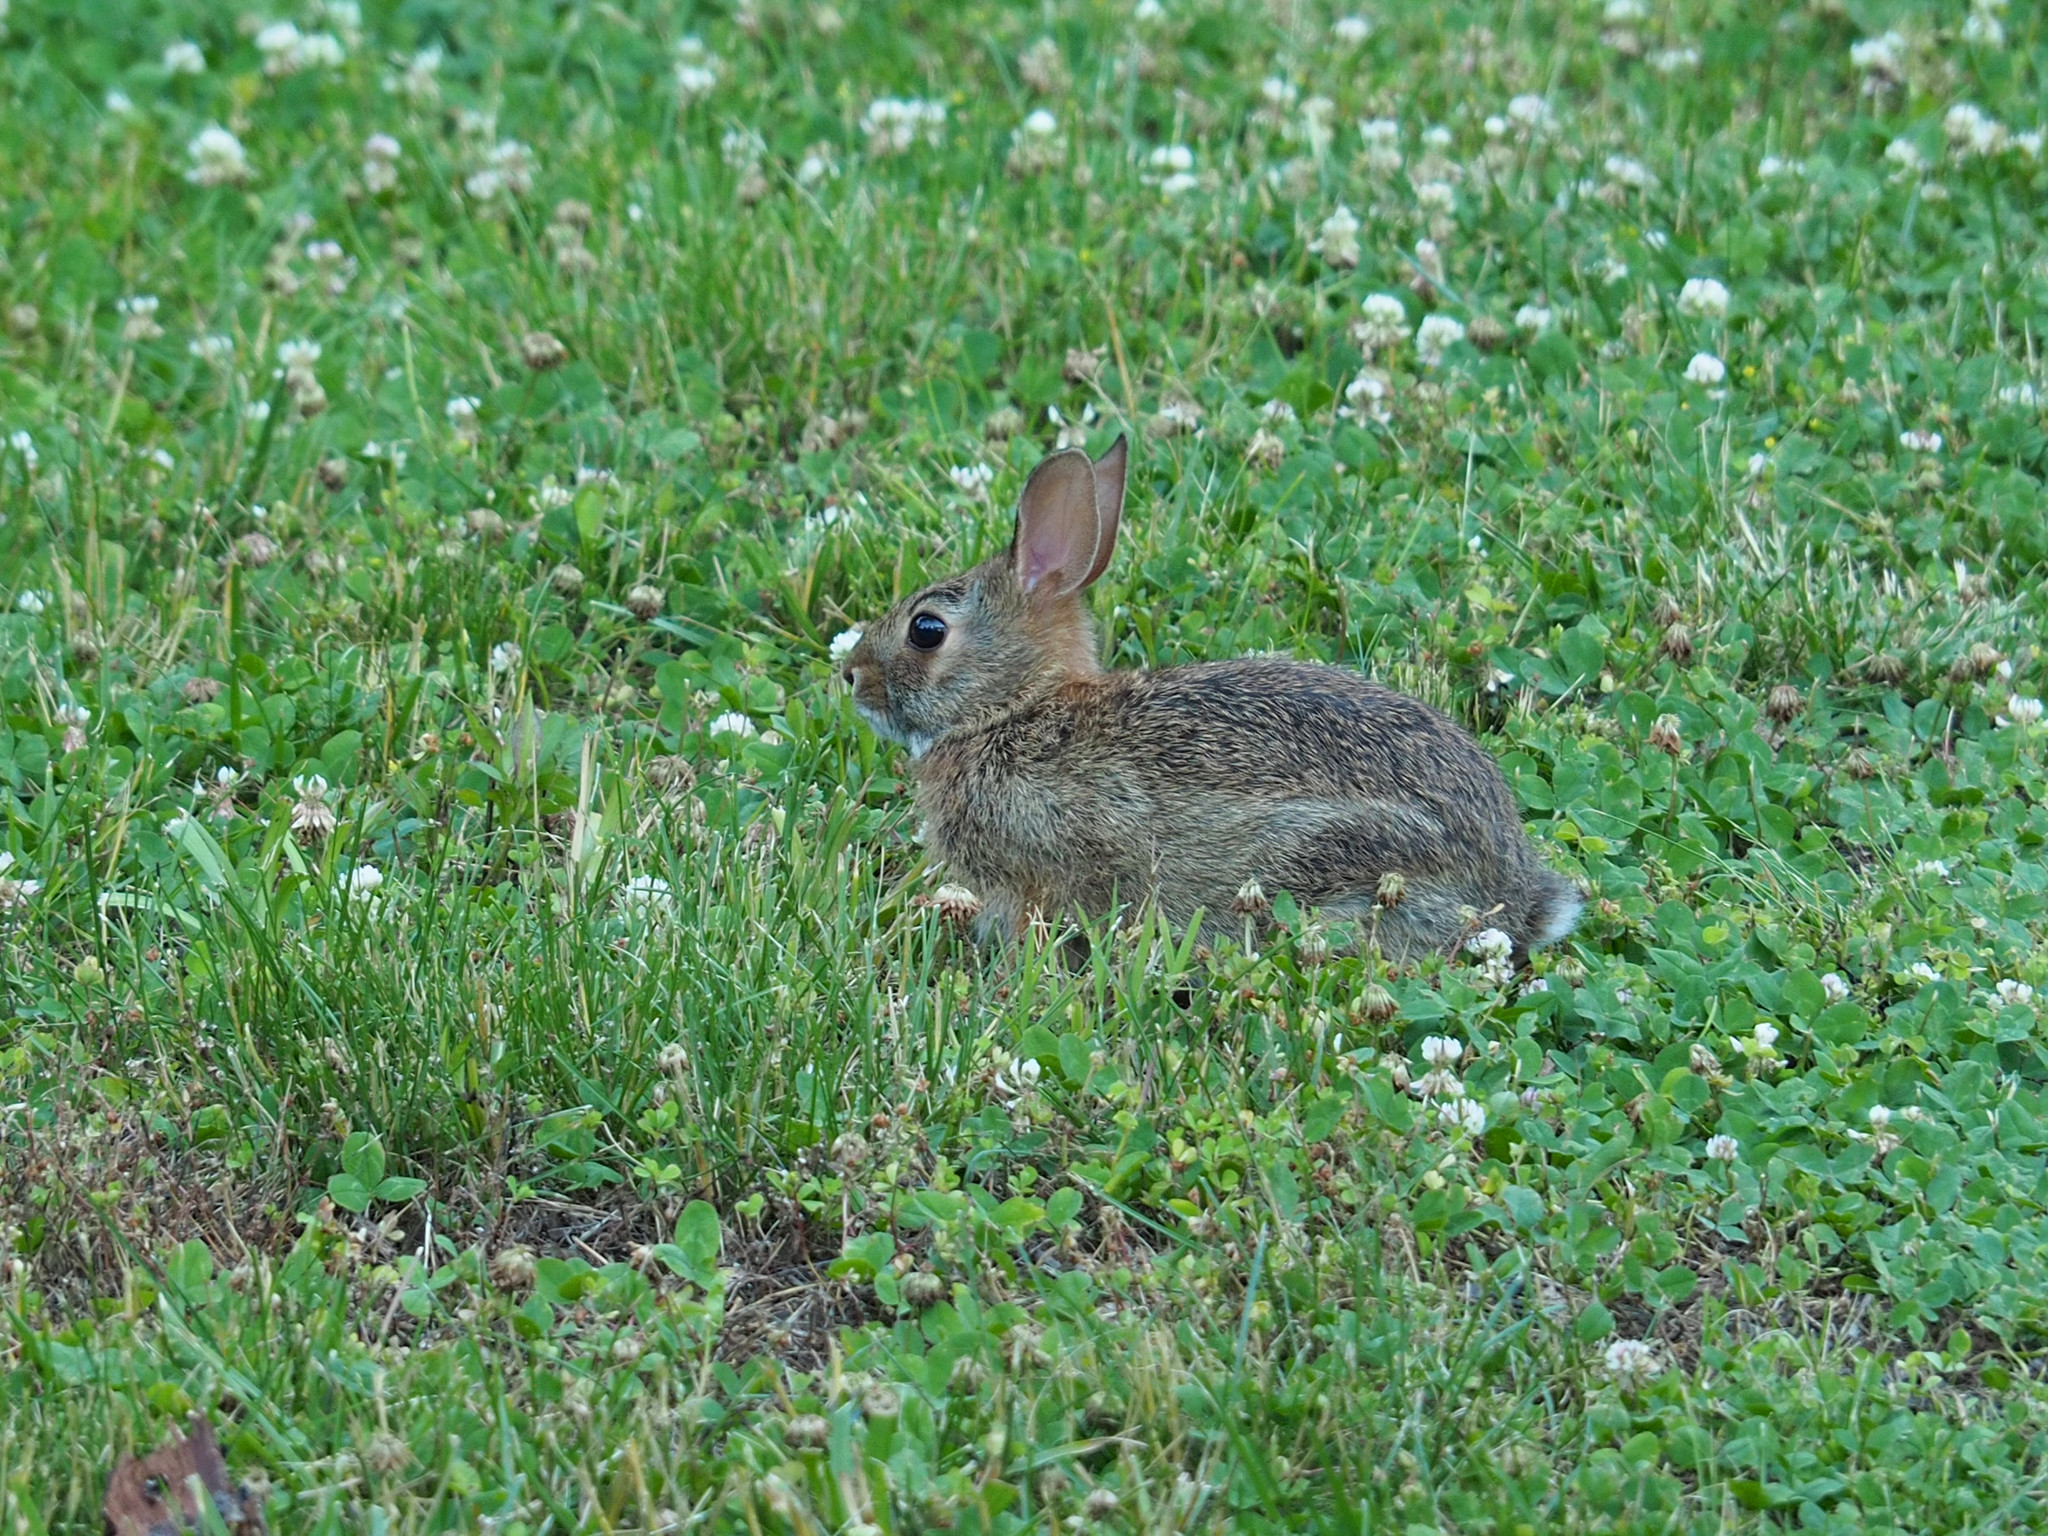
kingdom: Animalia
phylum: Chordata
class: Mammalia
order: Lagomorpha
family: Leporidae
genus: Sylvilagus
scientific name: Sylvilagus floridanus
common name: Eastern cottontail
